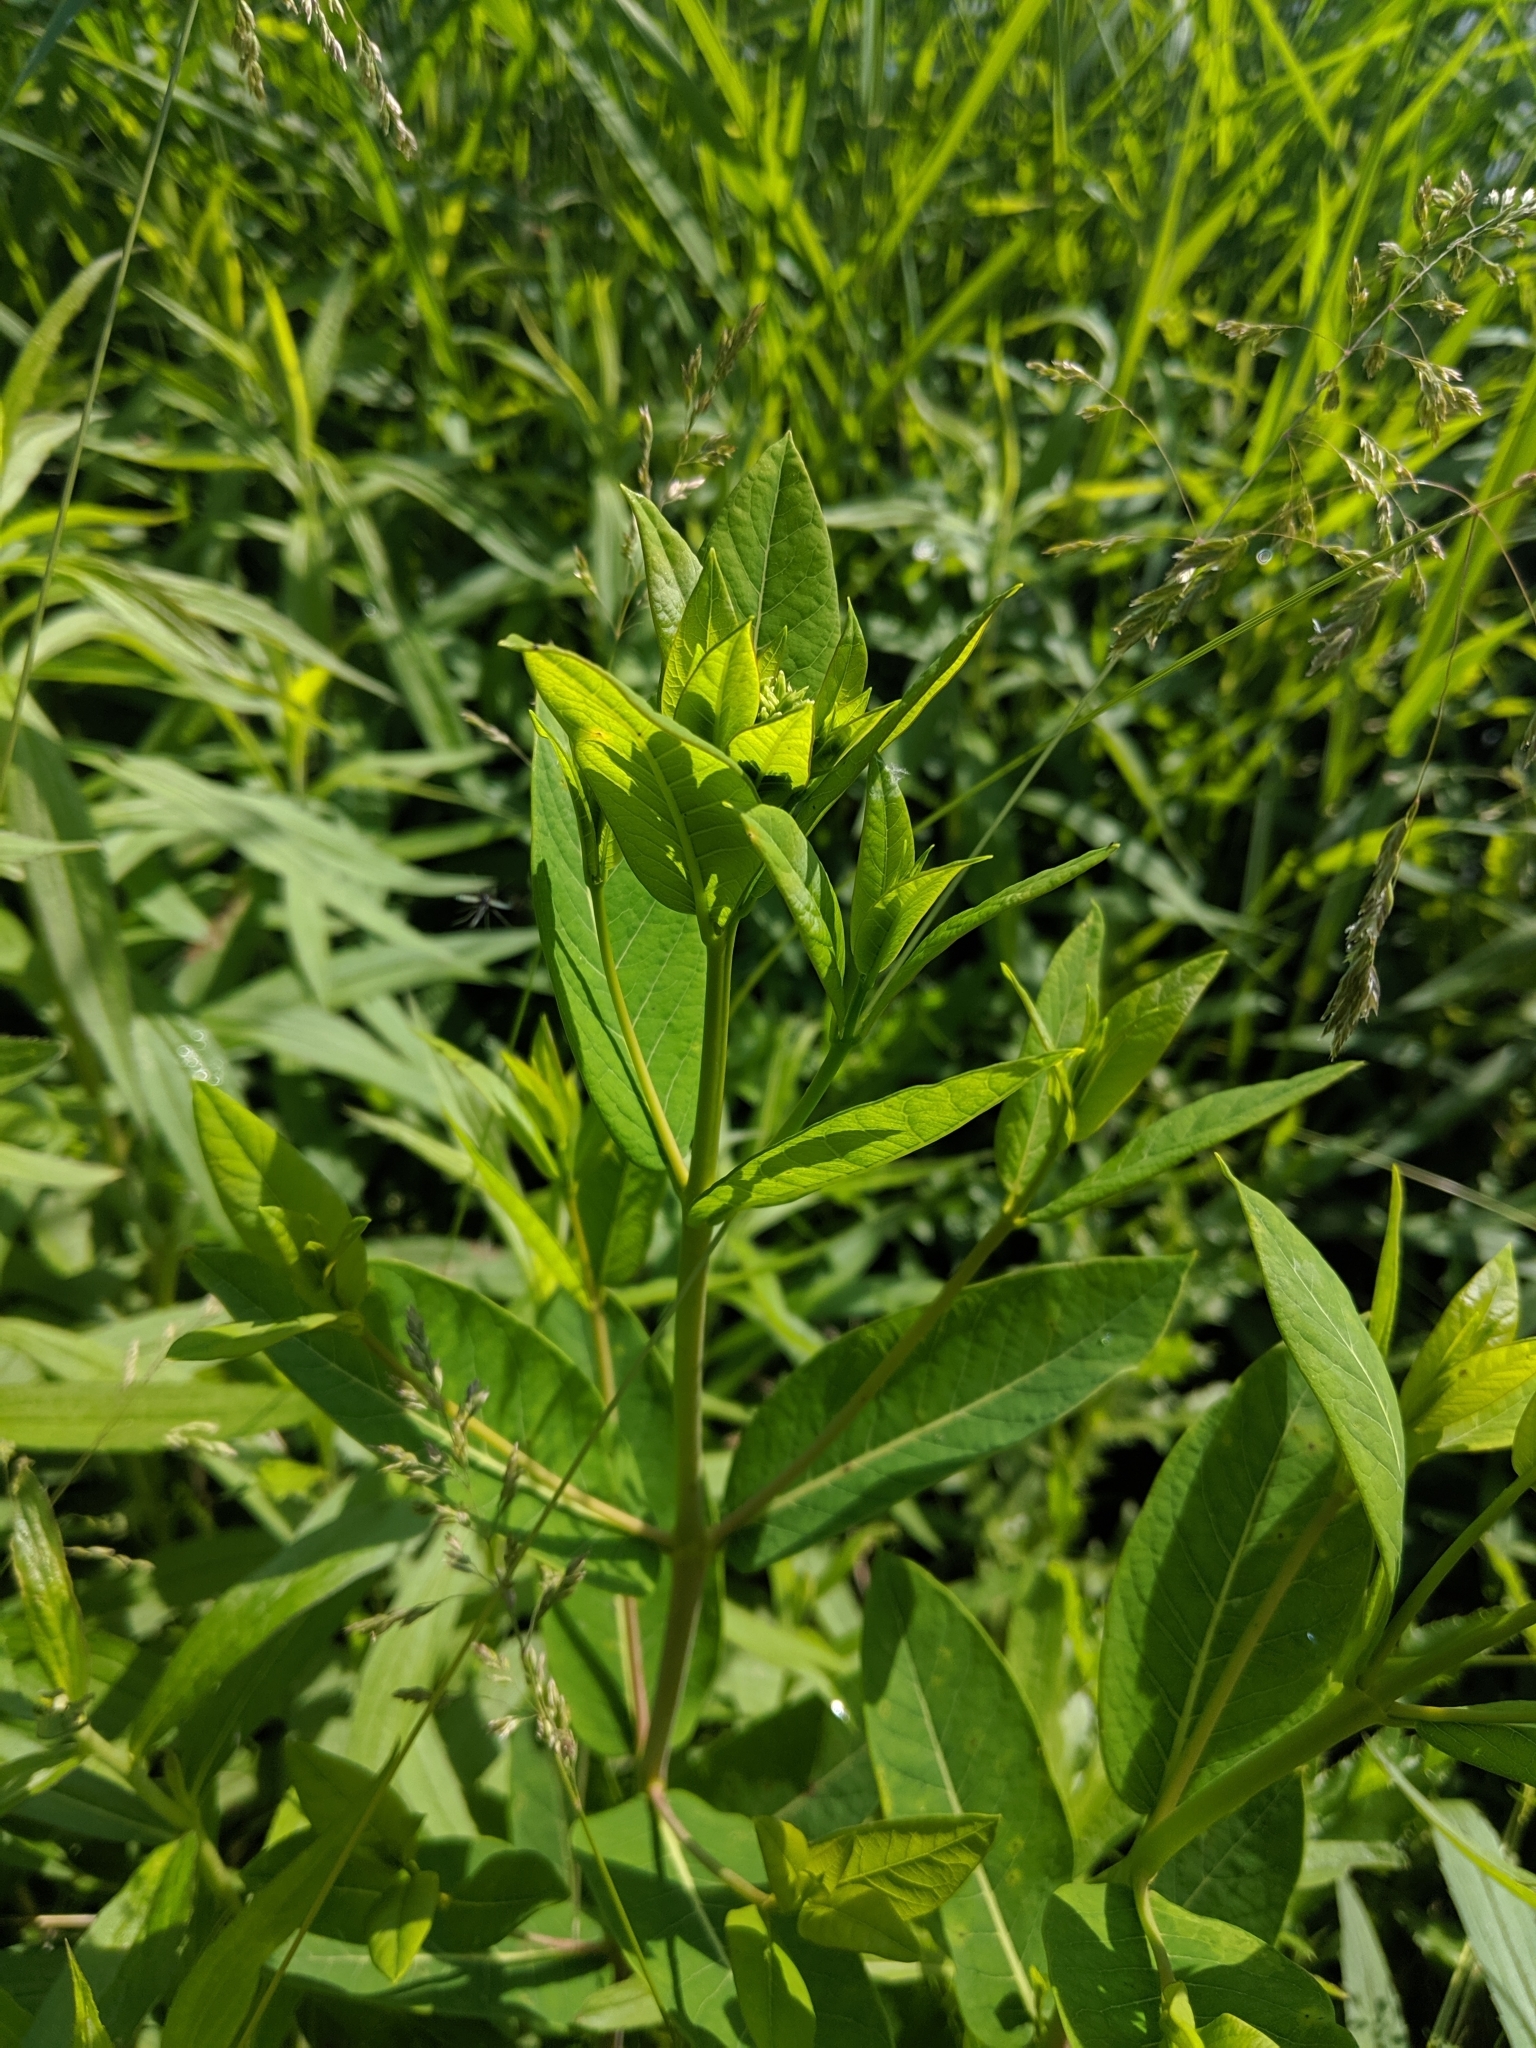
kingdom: Plantae
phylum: Tracheophyta
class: Magnoliopsida
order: Gentianales
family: Apocynaceae
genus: Apocynum
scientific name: Apocynum cannabinum
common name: Hemp dogbane
